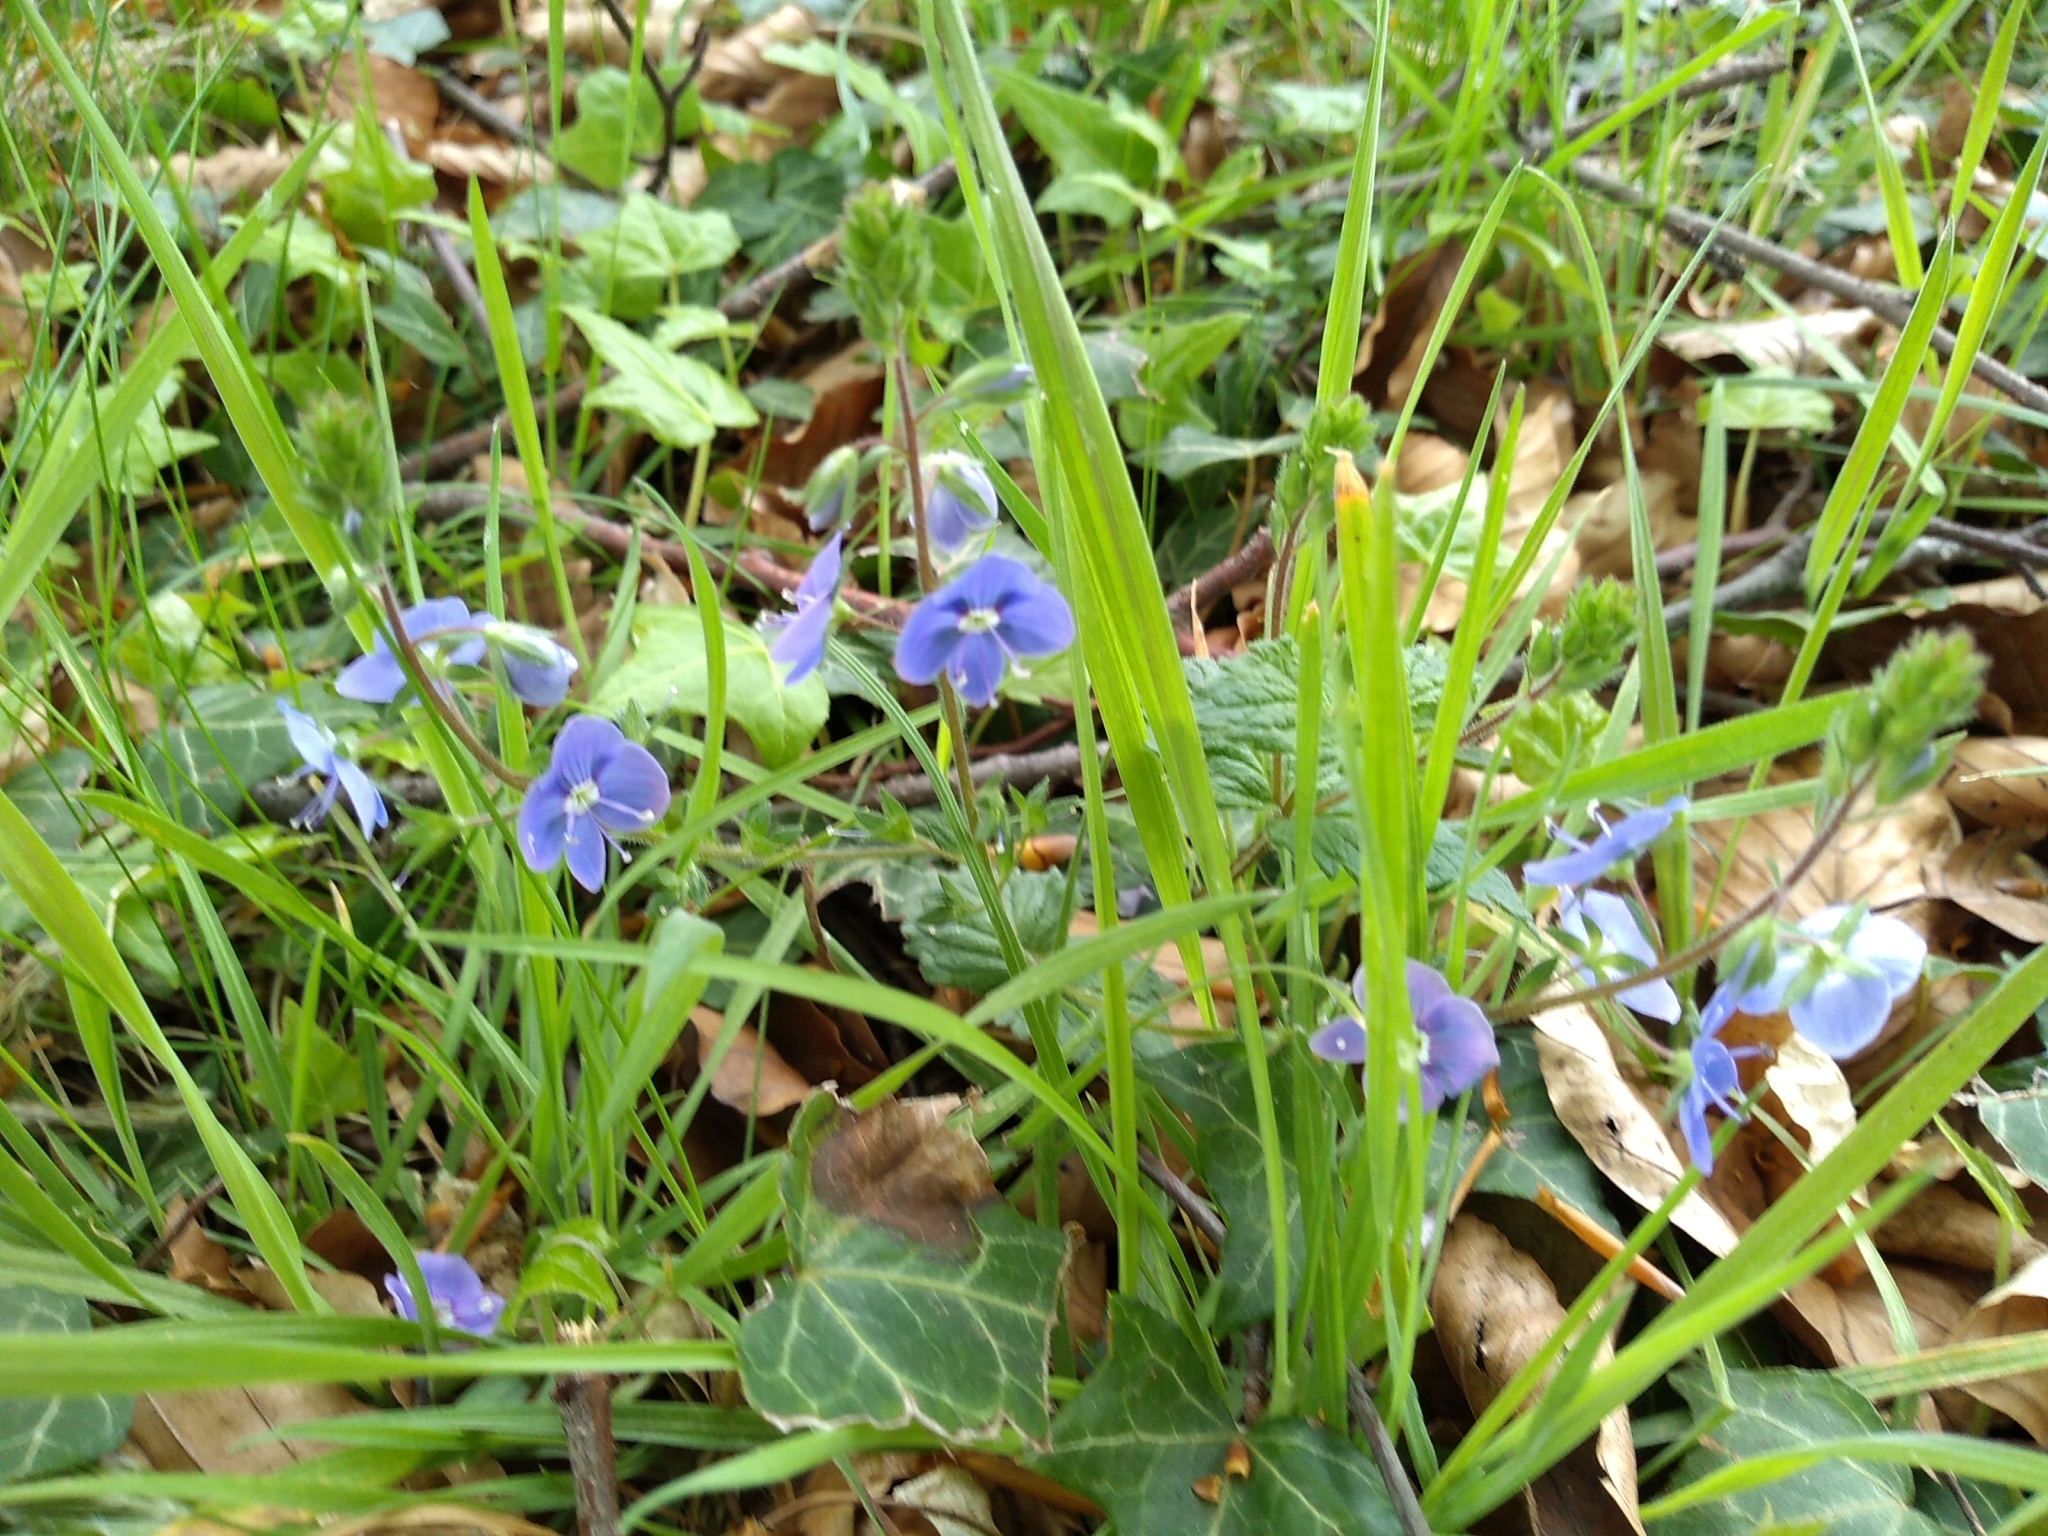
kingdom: Plantae
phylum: Tracheophyta
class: Magnoliopsida
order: Lamiales
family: Plantaginaceae
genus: Veronica
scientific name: Veronica chamaedrys
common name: Germander speedwell
